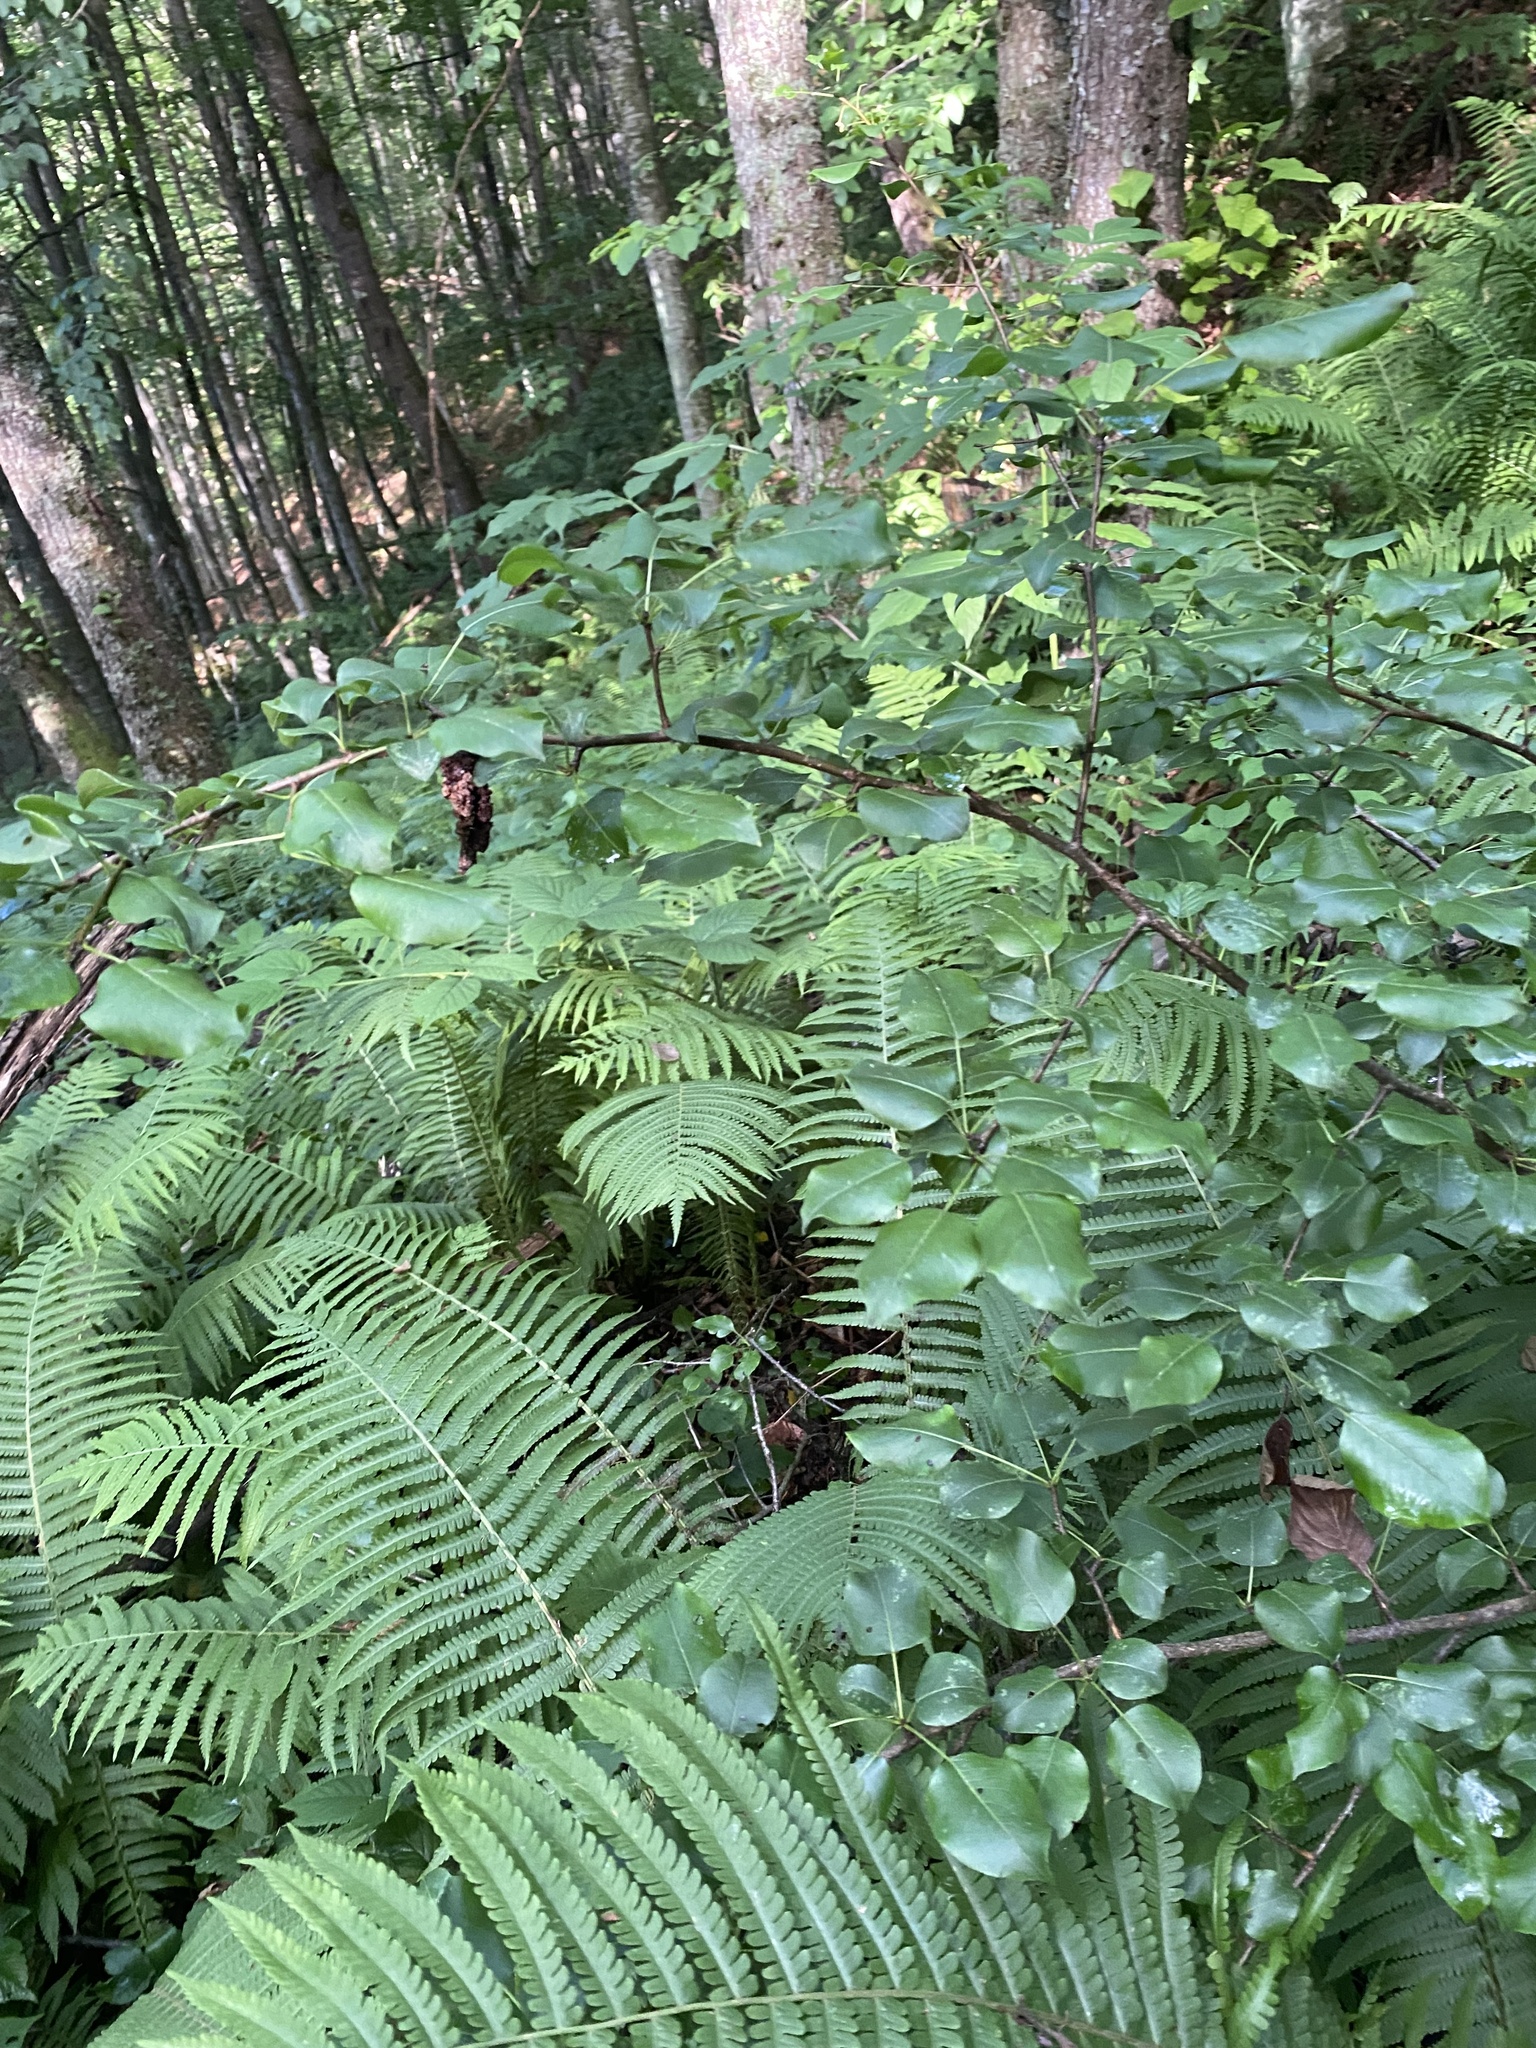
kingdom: Plantae
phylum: Tracheophyta
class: Magnoliopsida
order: Rosales
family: Rosaceae
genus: Pyrus
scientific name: Pyrus communis
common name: Pear
